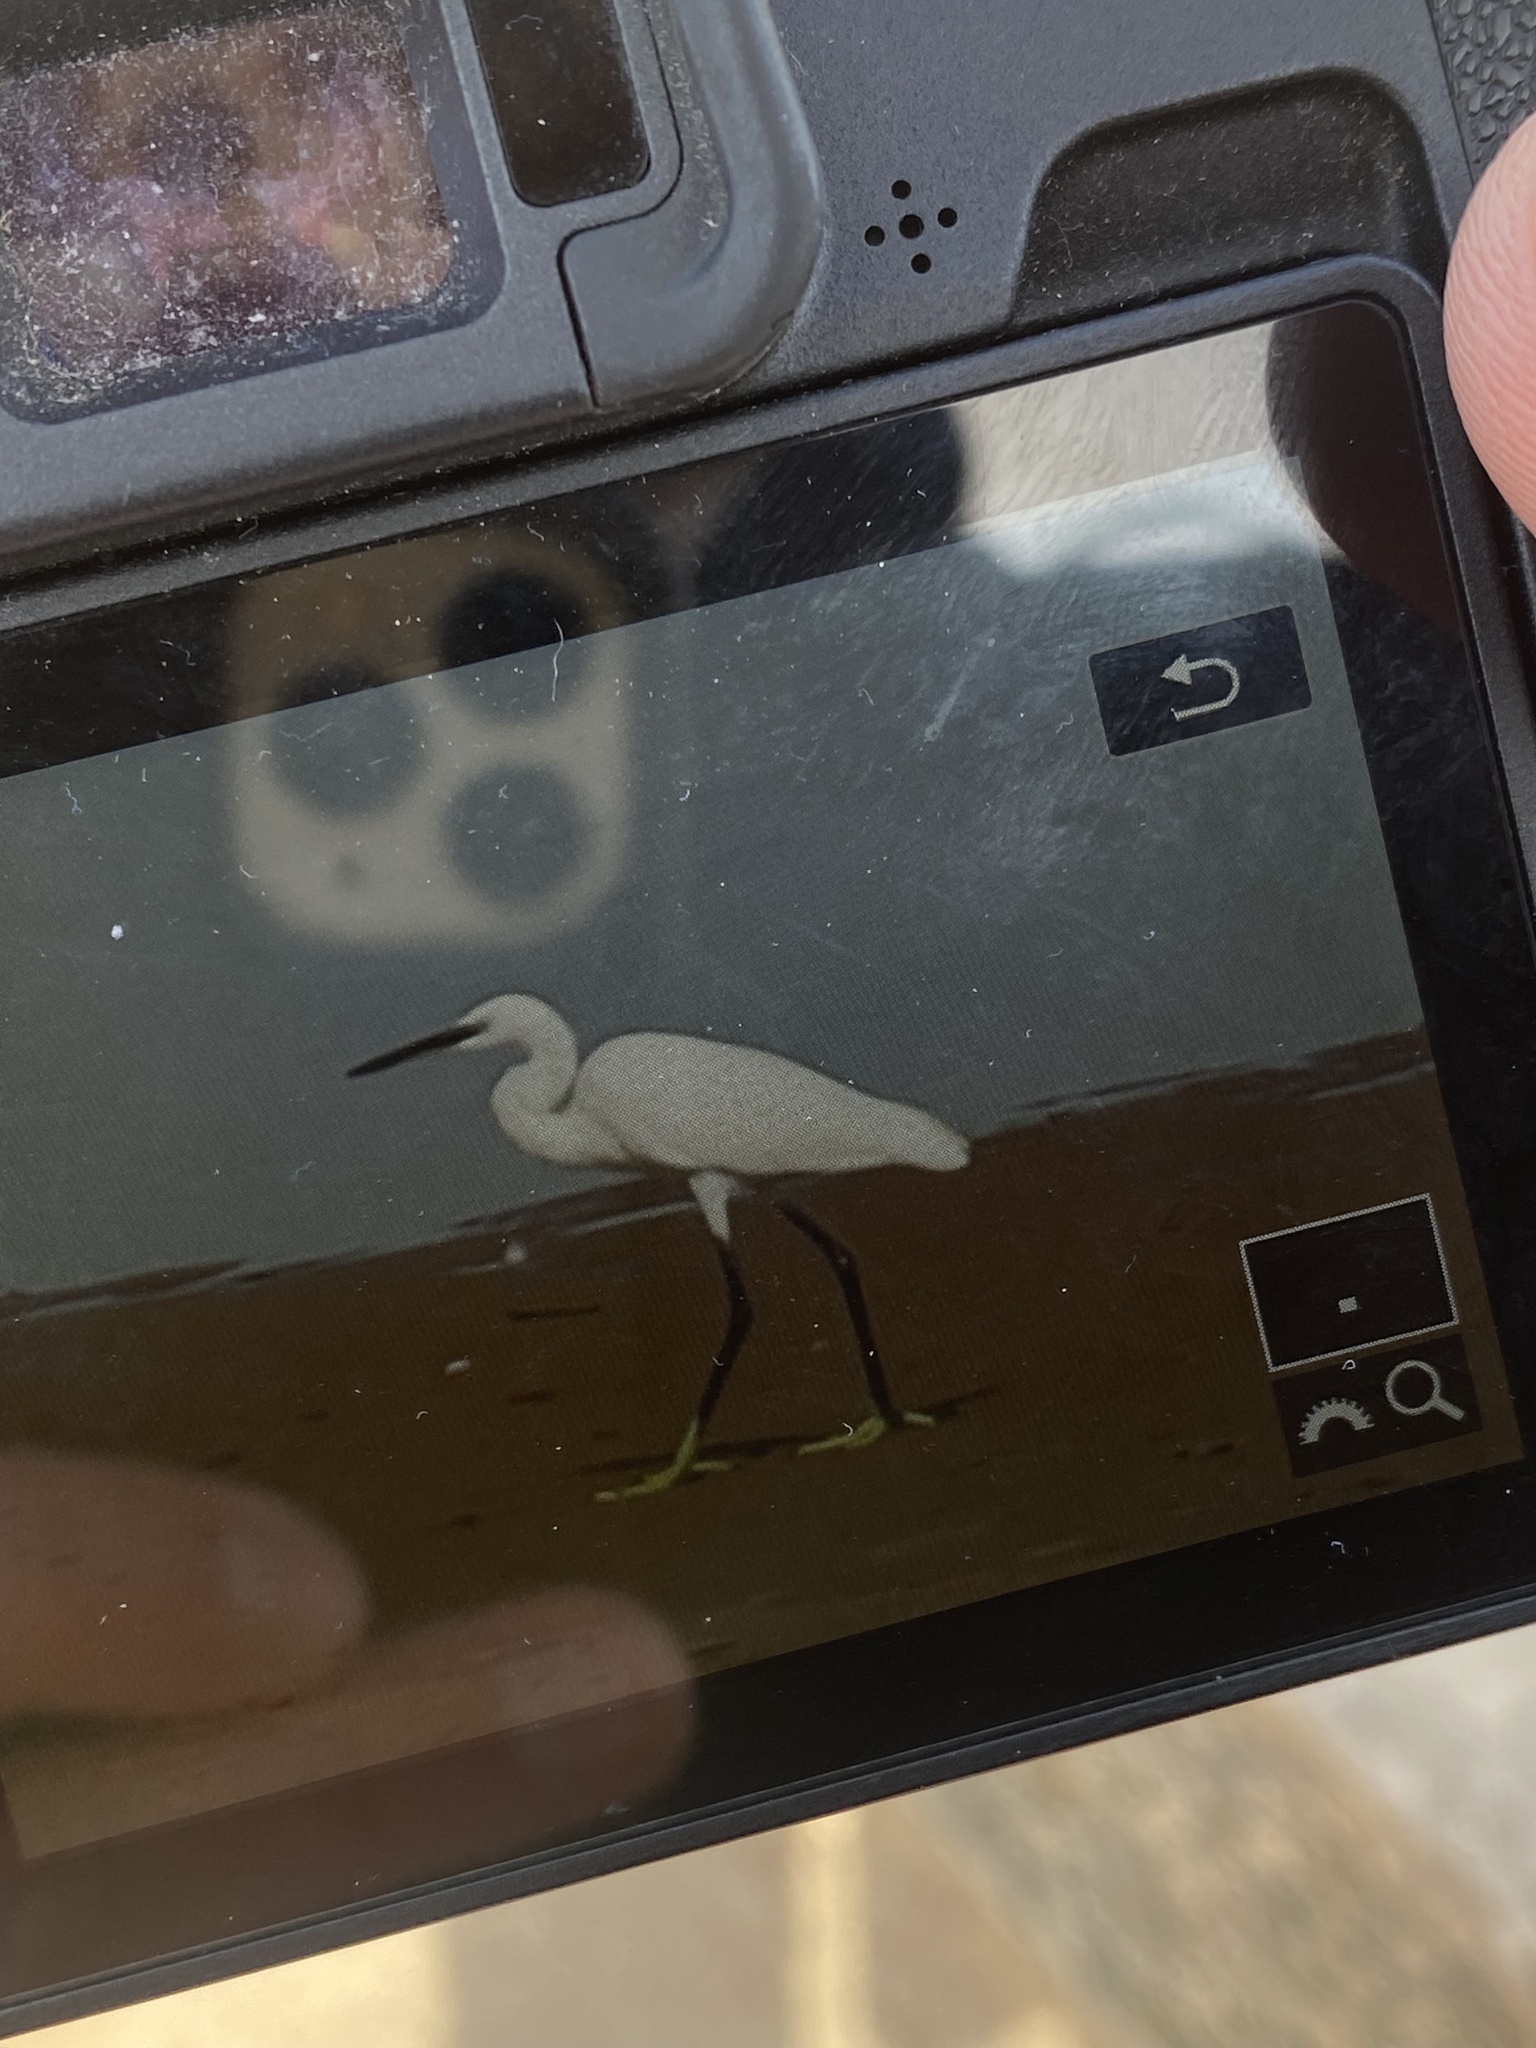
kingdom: Animalia
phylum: Chordata
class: Aves
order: Pelecaniformes
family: Ardeidae
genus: Egretta
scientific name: Egretta garzetta
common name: Little egret
